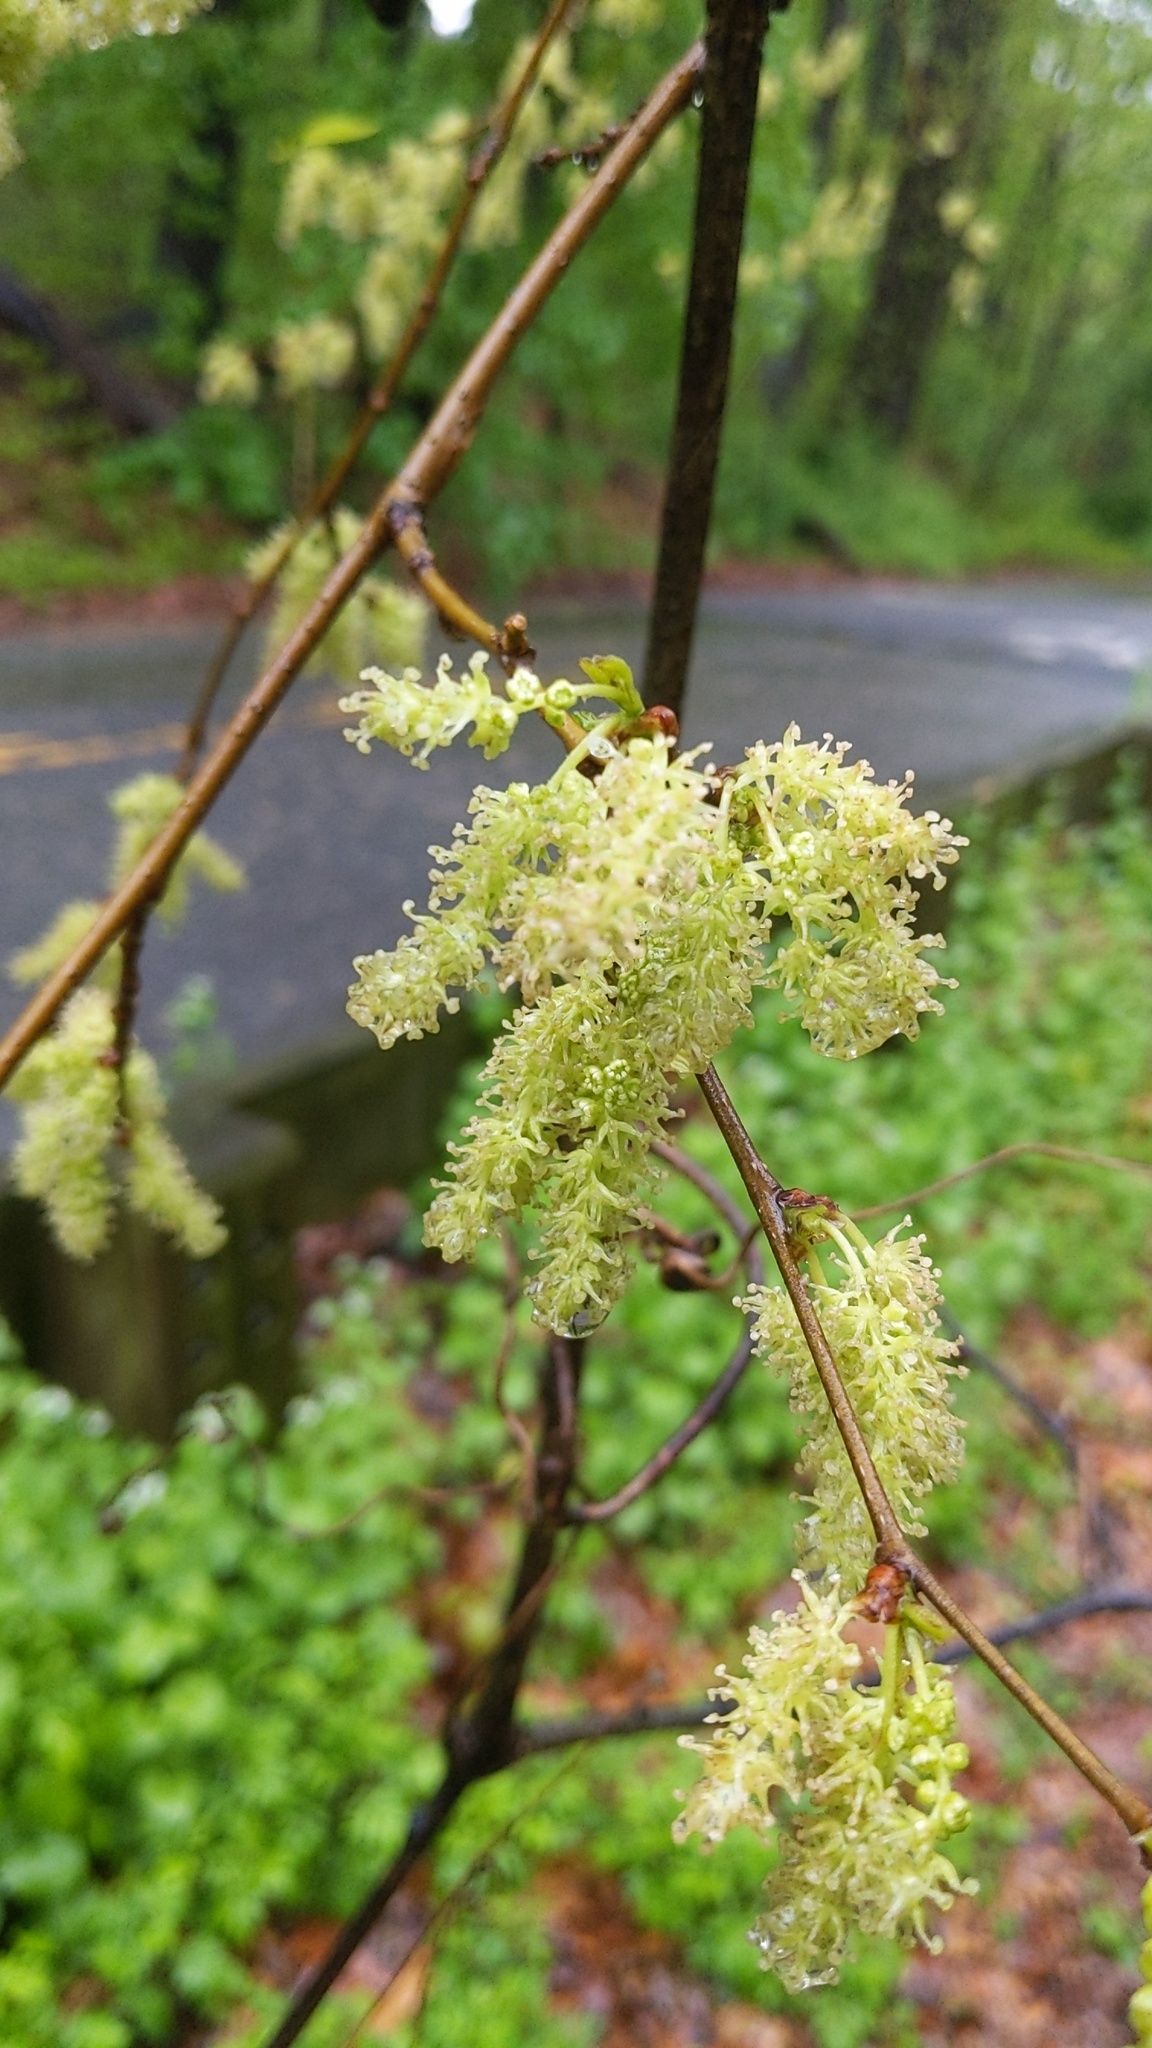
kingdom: Plantae
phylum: Tracheophyta
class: Magnoliopsida
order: Rosales
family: Moraceae
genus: Morus
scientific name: Morus alba
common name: White mulberry
